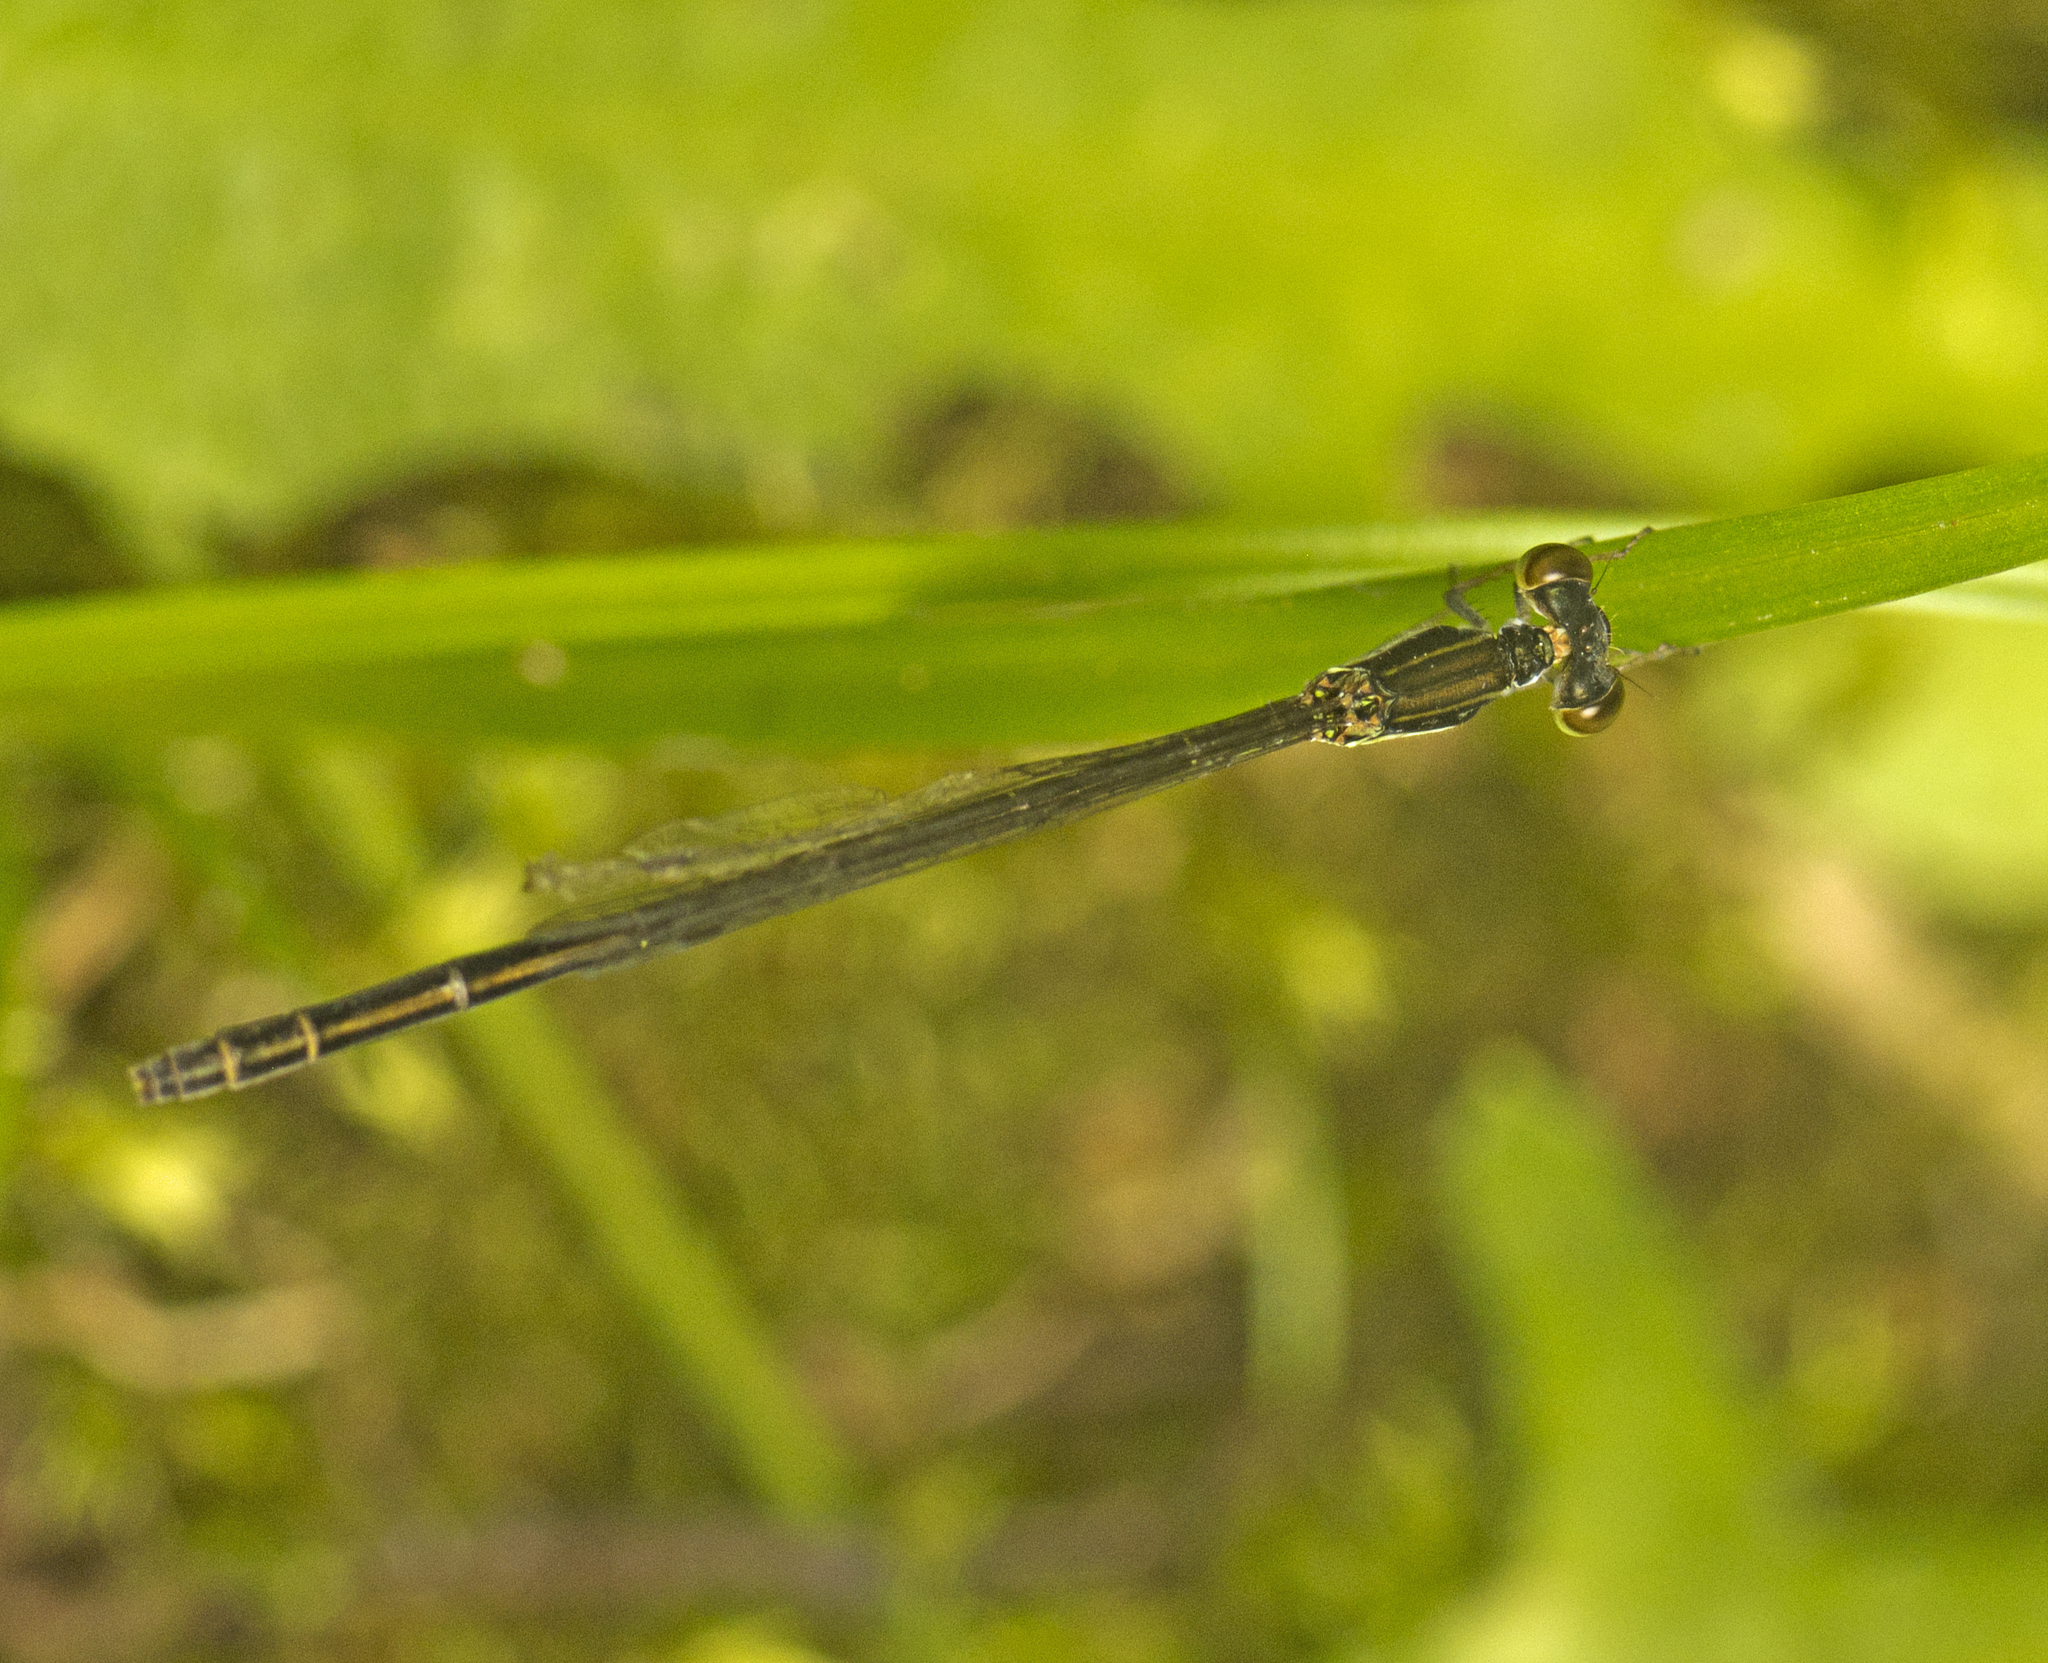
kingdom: Animalia
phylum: Arthropoda
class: Insecta
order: Odonata
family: Coenagrionidae
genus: Agriocnemis
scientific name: Agriocnemis rubricauda
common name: Red-rumped wisp
